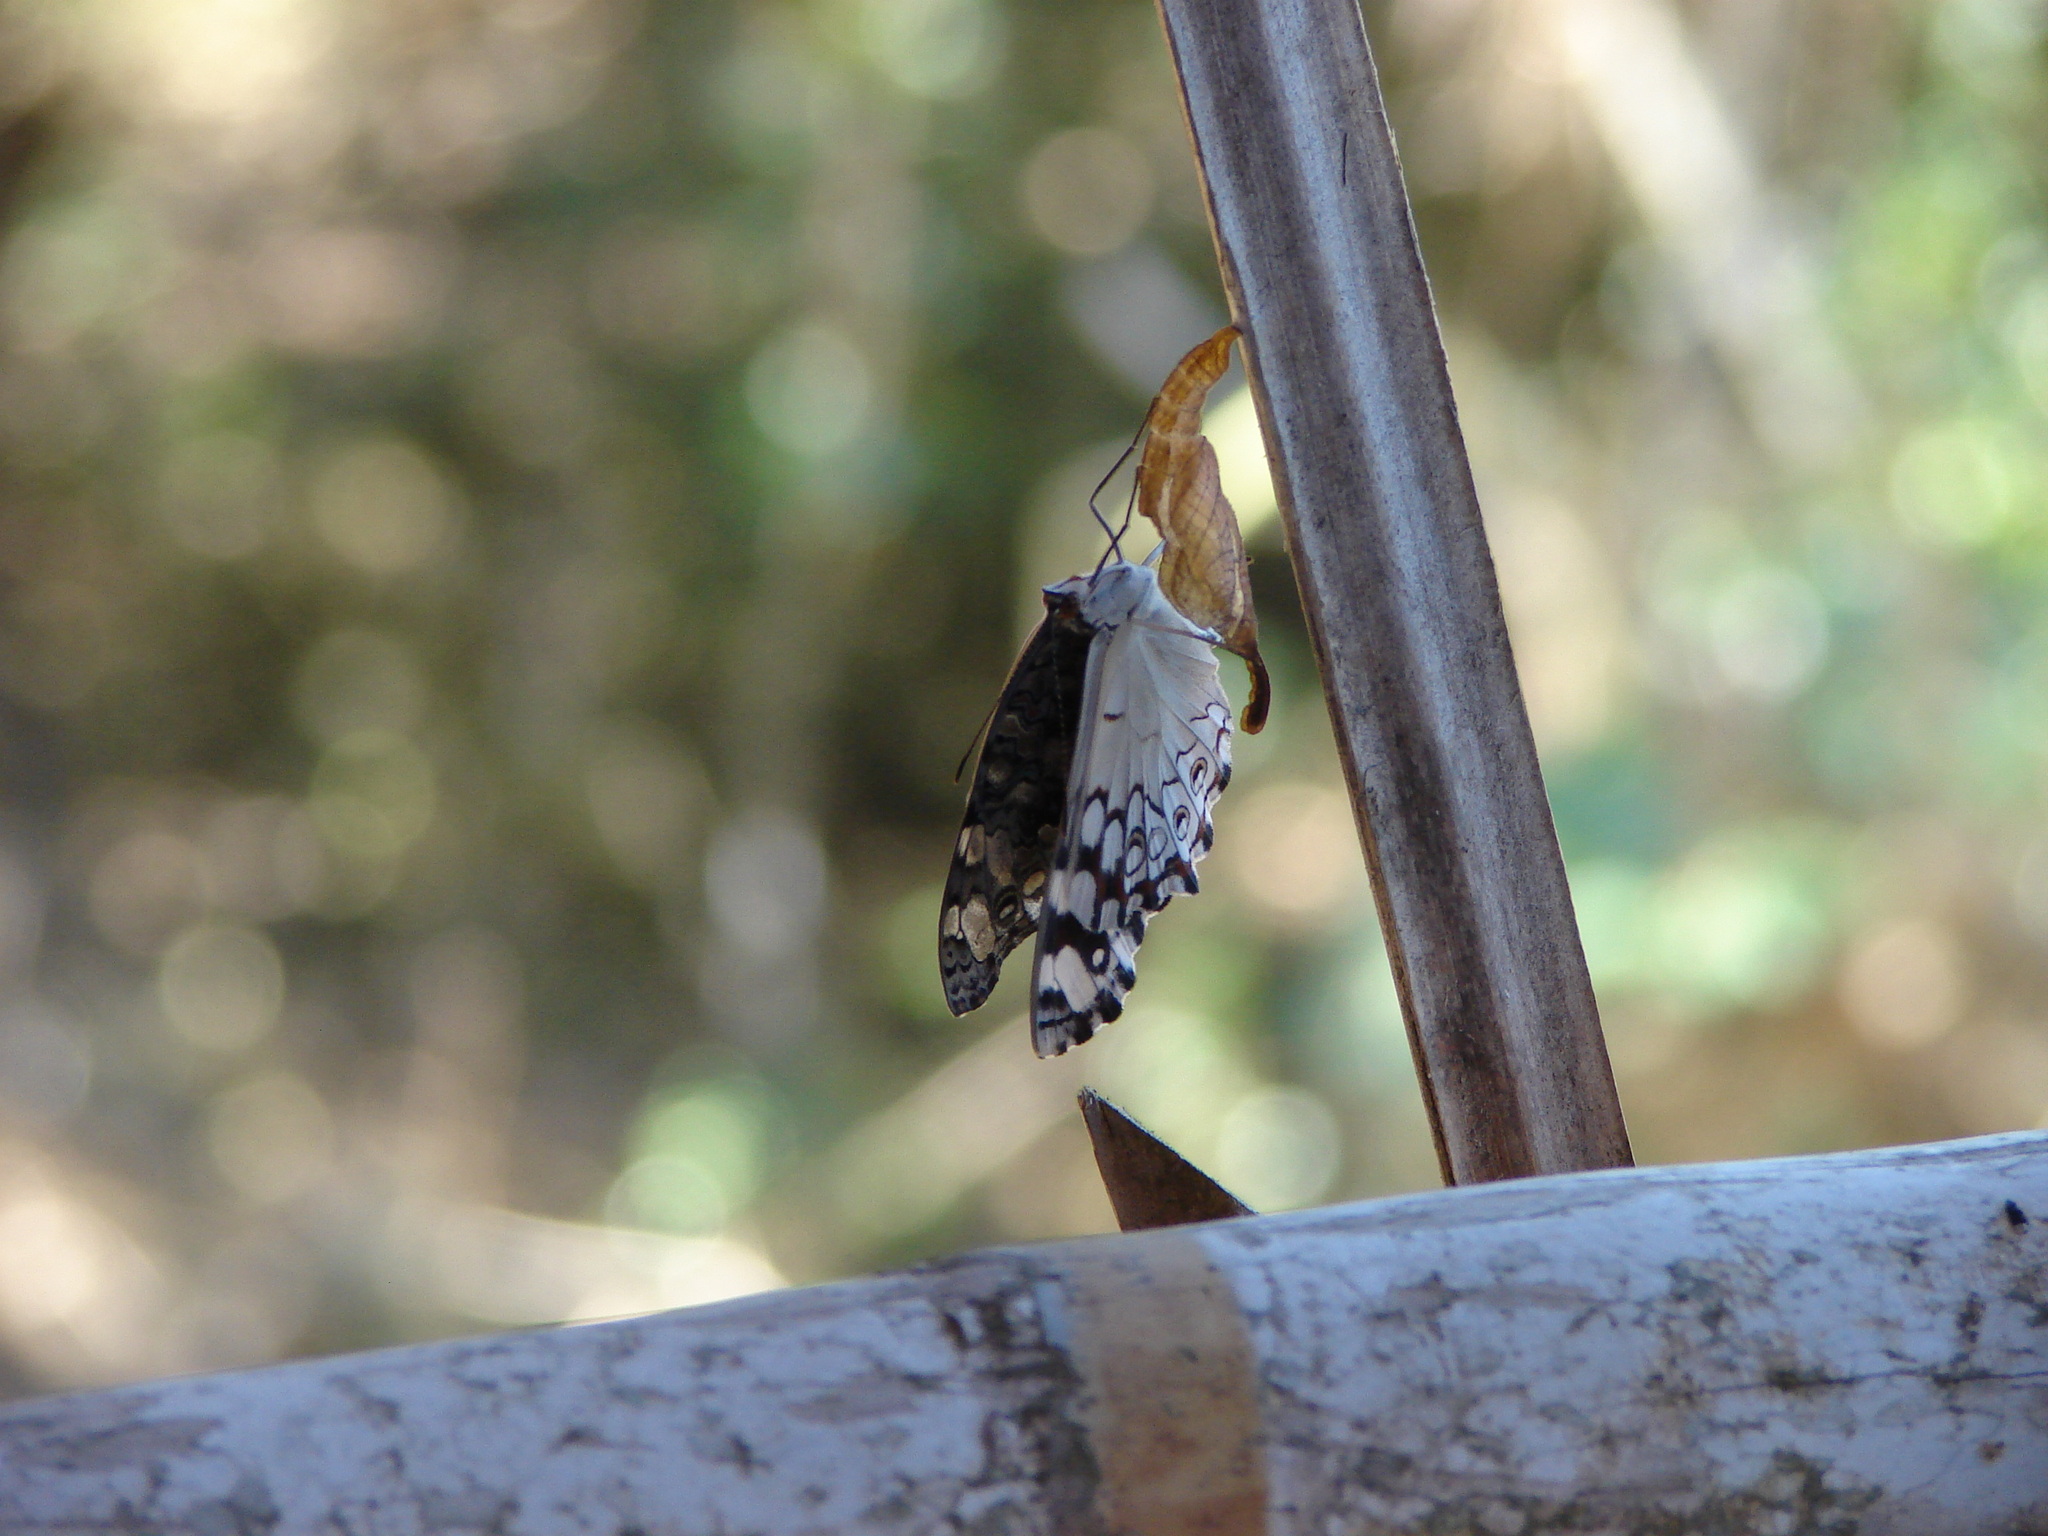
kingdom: Animalia
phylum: Arthropoda
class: Insecta
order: Lepidoptera
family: Nymphalidae
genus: Hamadryas
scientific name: Hamadryas februa
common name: Gray cracker
